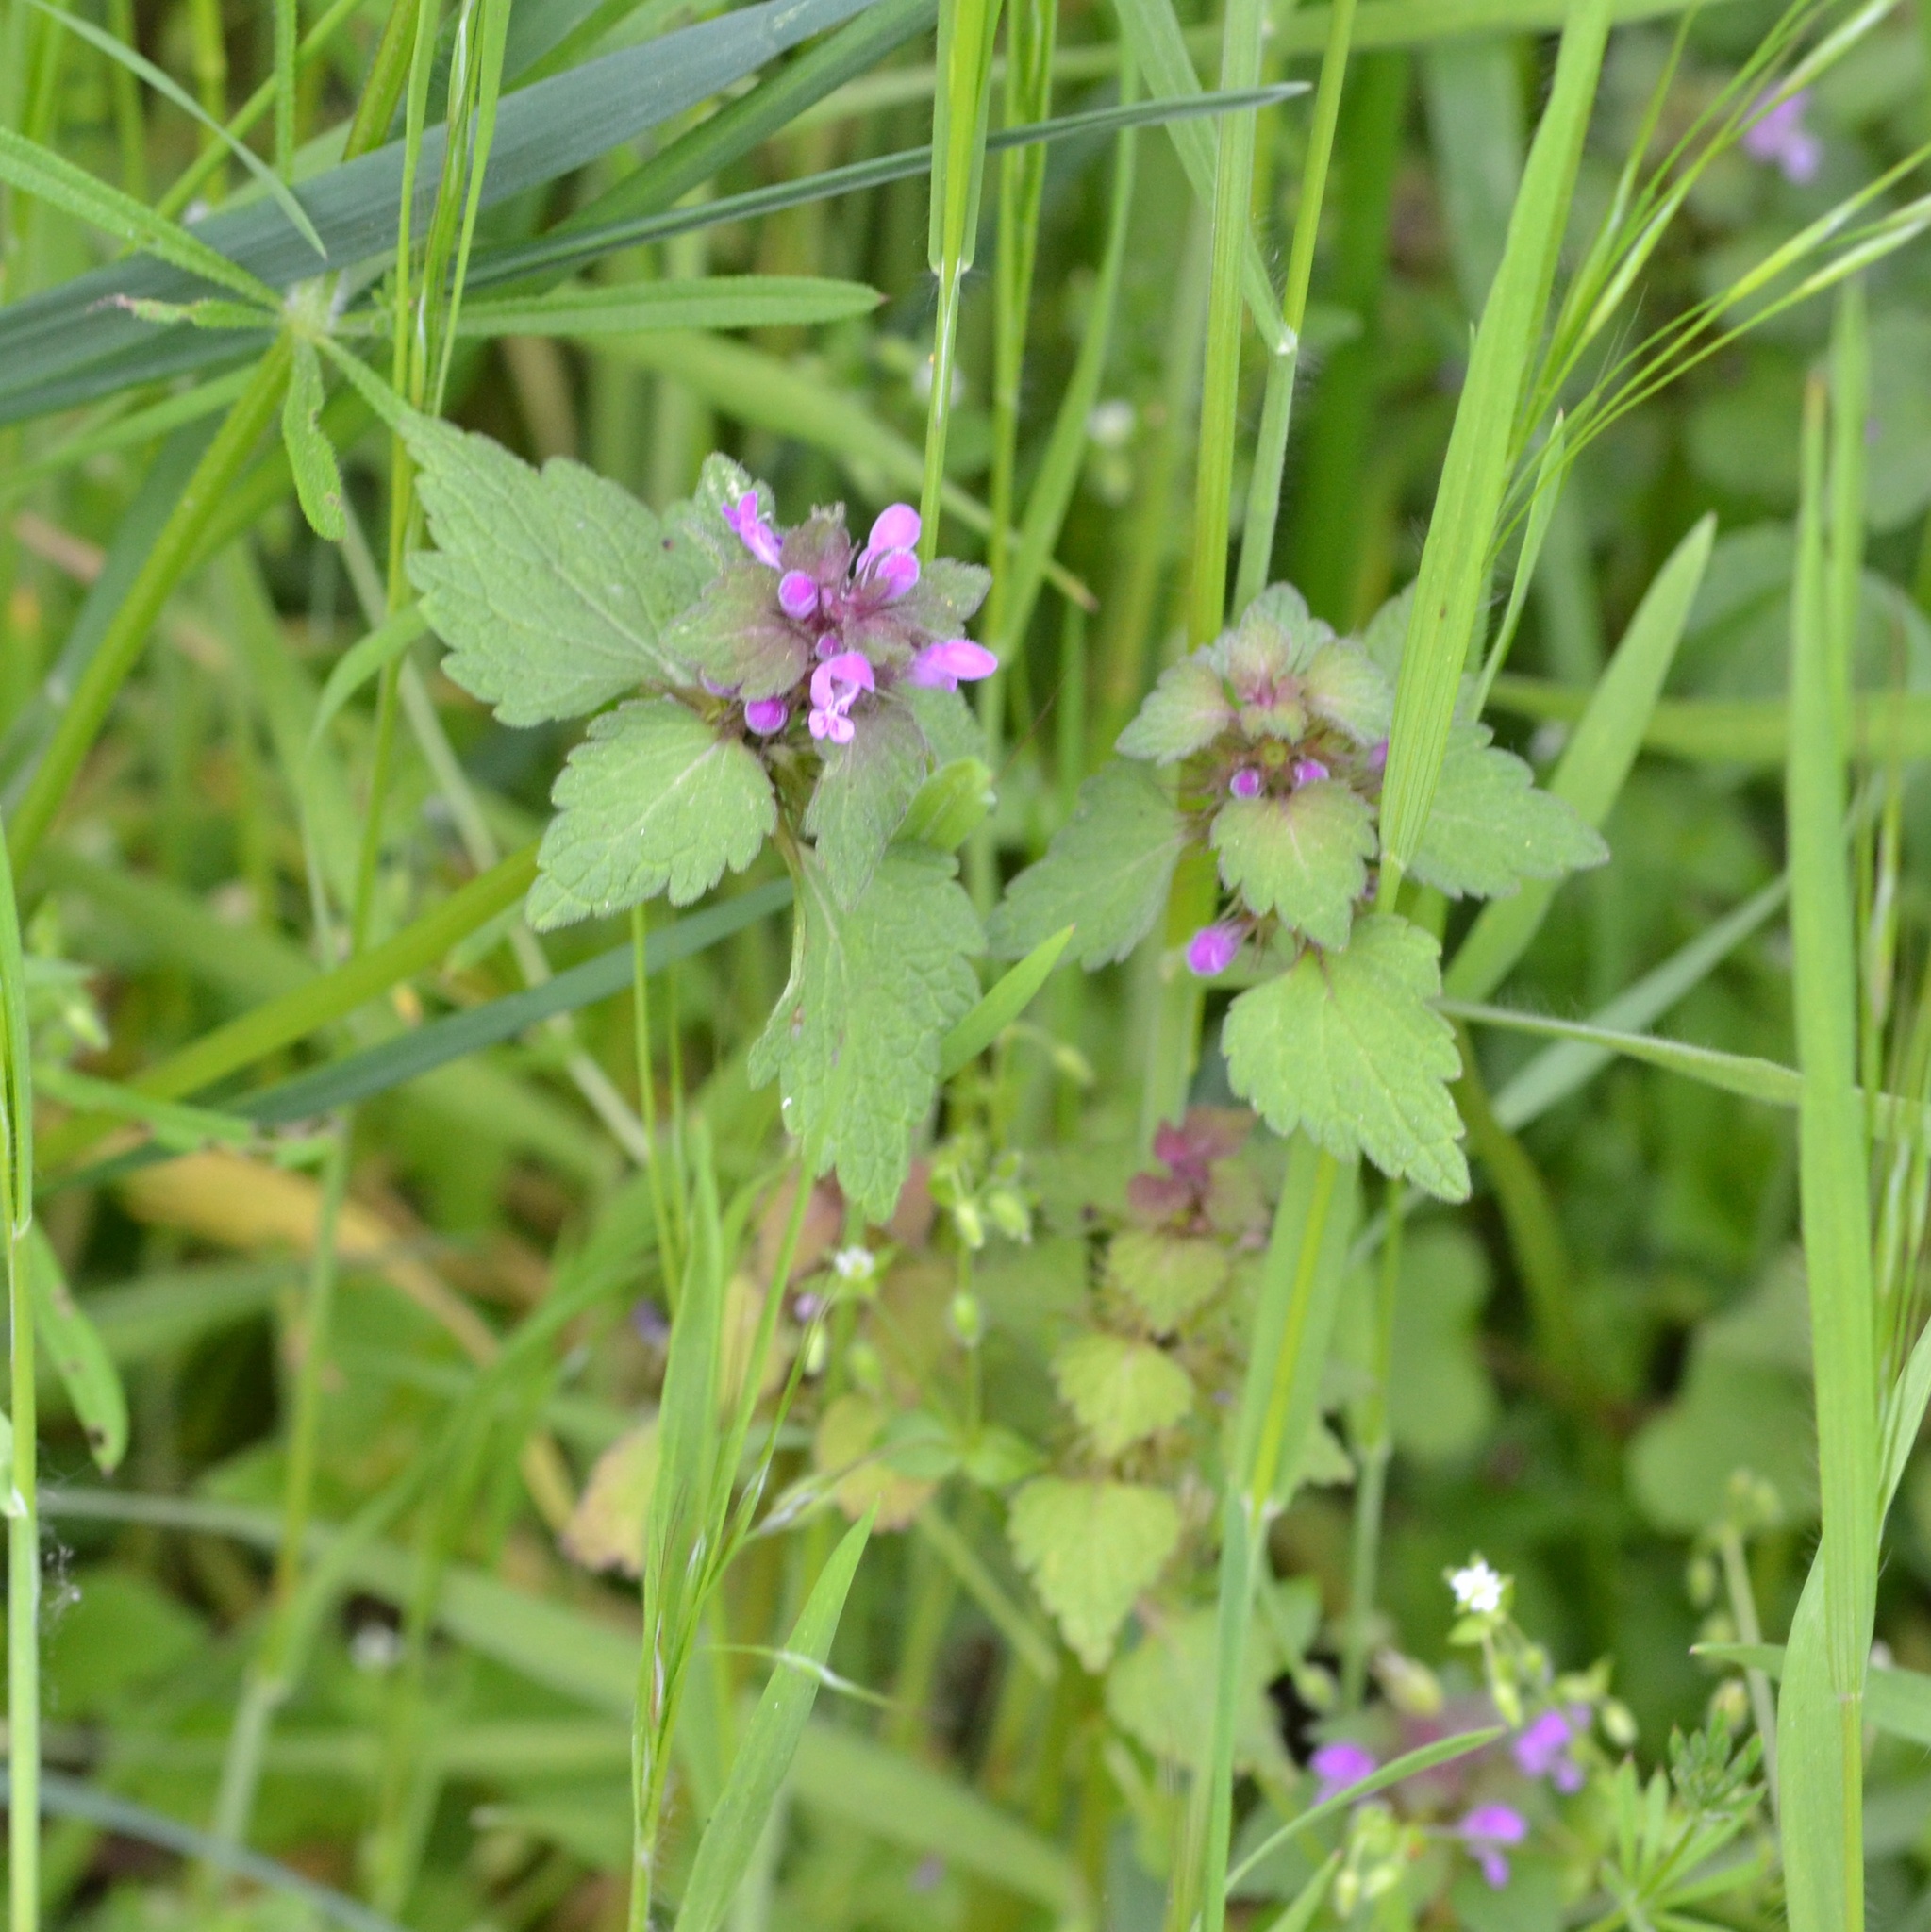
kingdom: Plantae
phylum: Tracheophyta
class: Magnoliopsida
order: Lamiales
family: Lamiaceae
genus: Lamium
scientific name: Lamium purpureum
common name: Red dead-nettle
